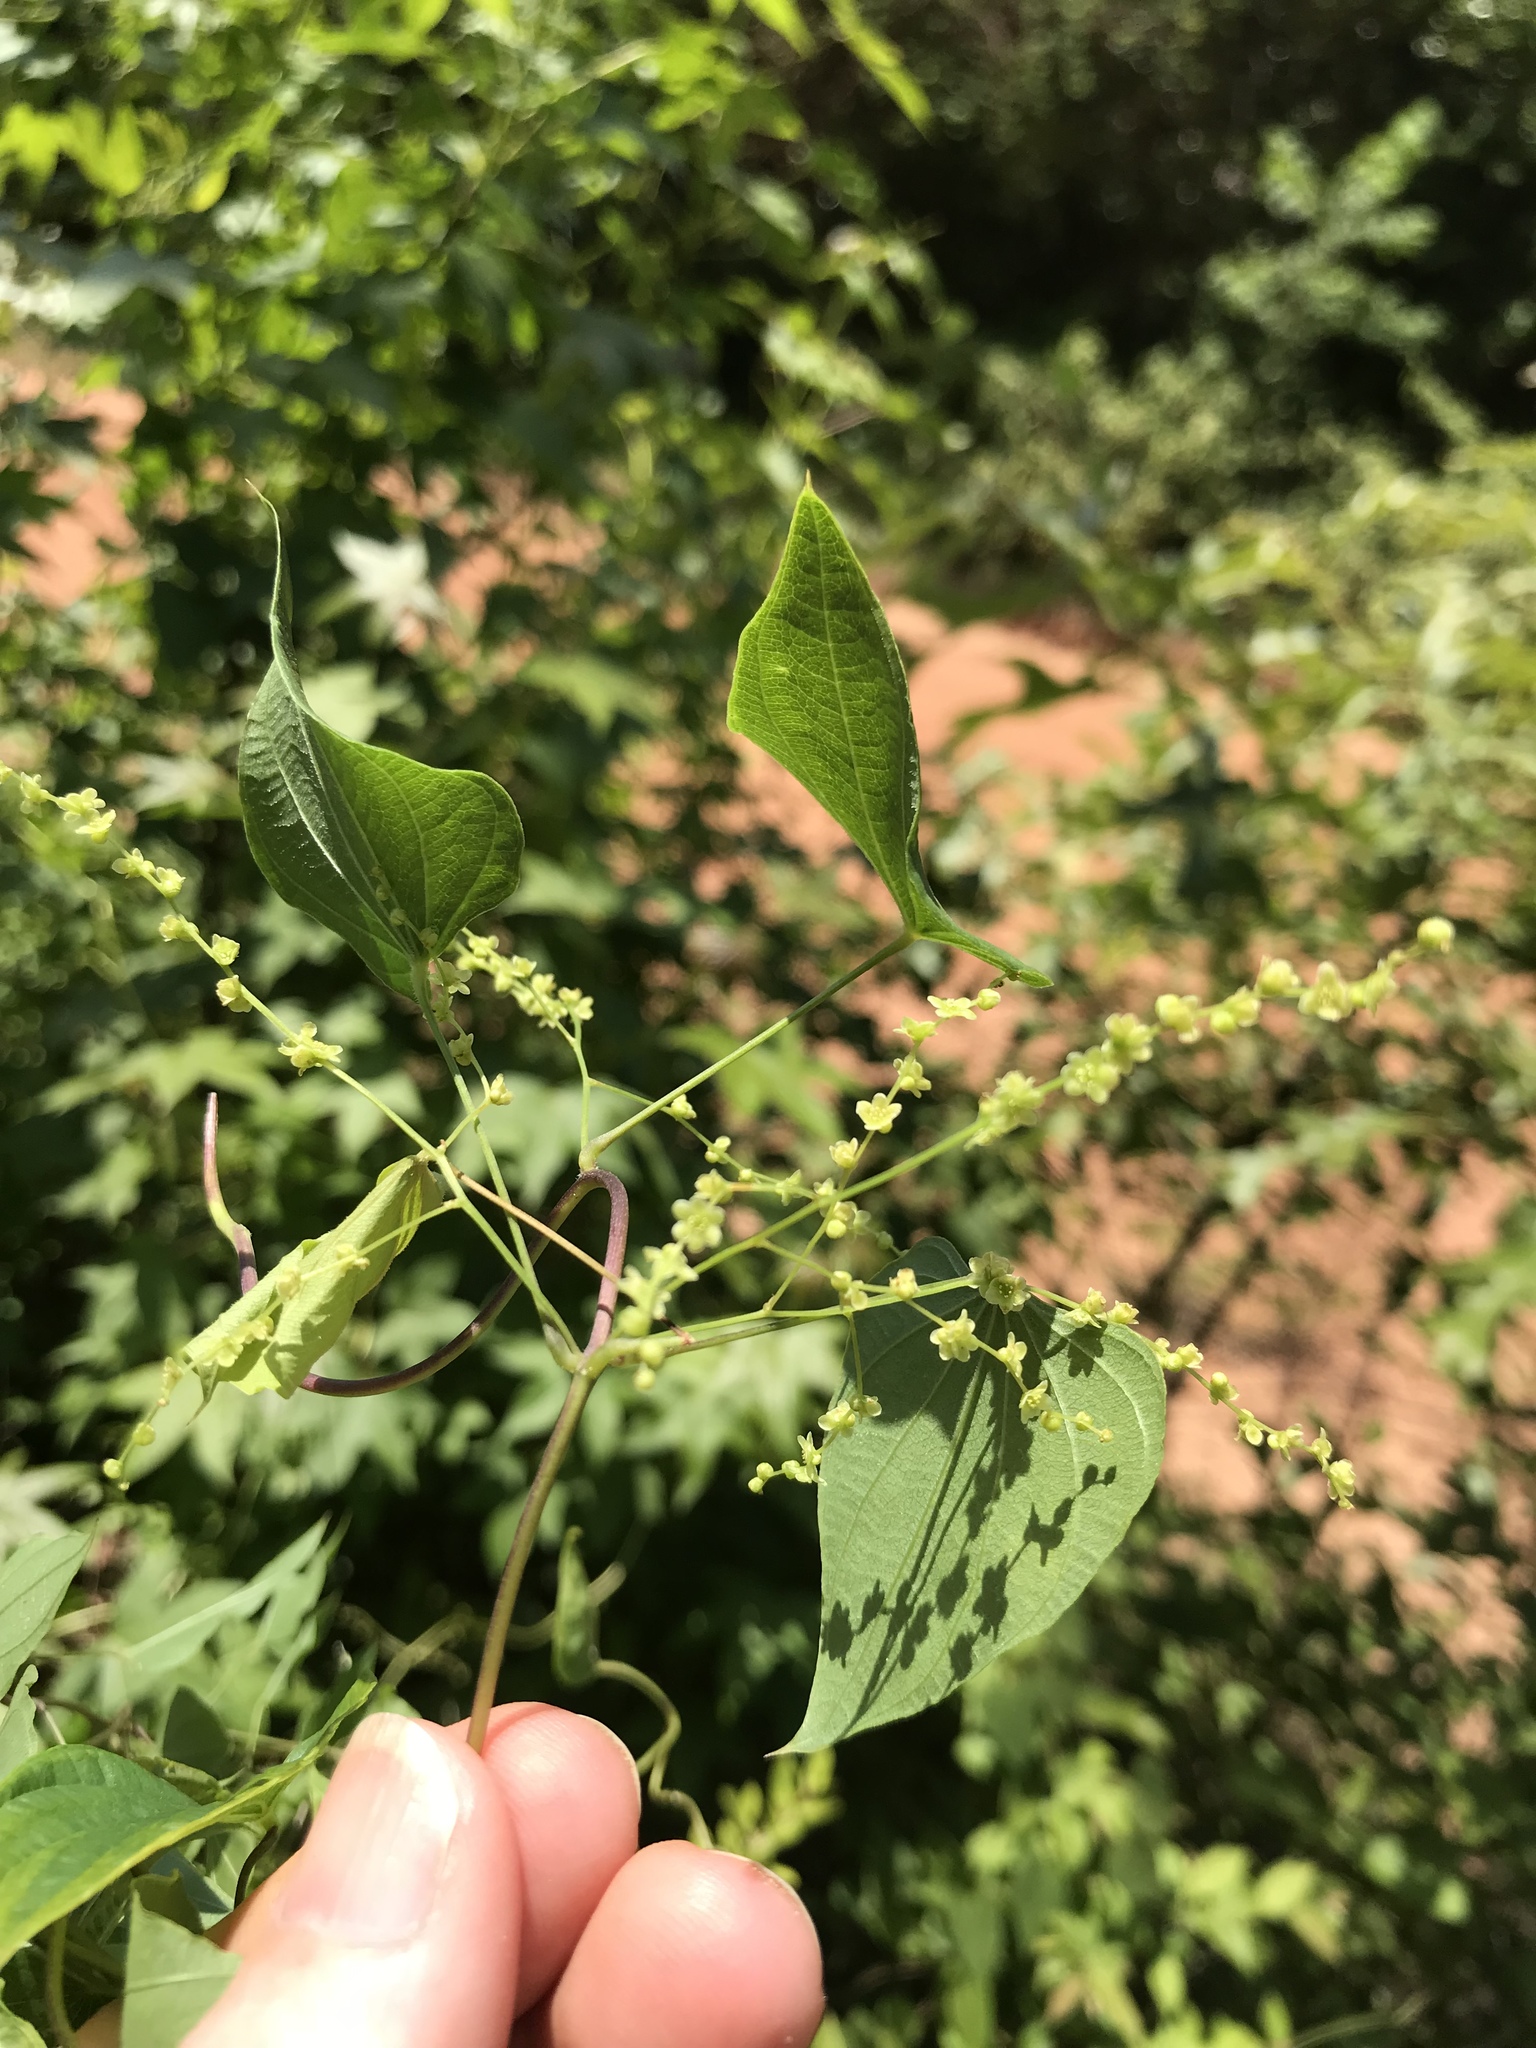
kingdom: Plantae
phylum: Tracheophyta
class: Liliopsida
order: Dioscoreales
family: Dioscoreaceae
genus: Dioscorea
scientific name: Dioscorea villosa
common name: Wild yam
